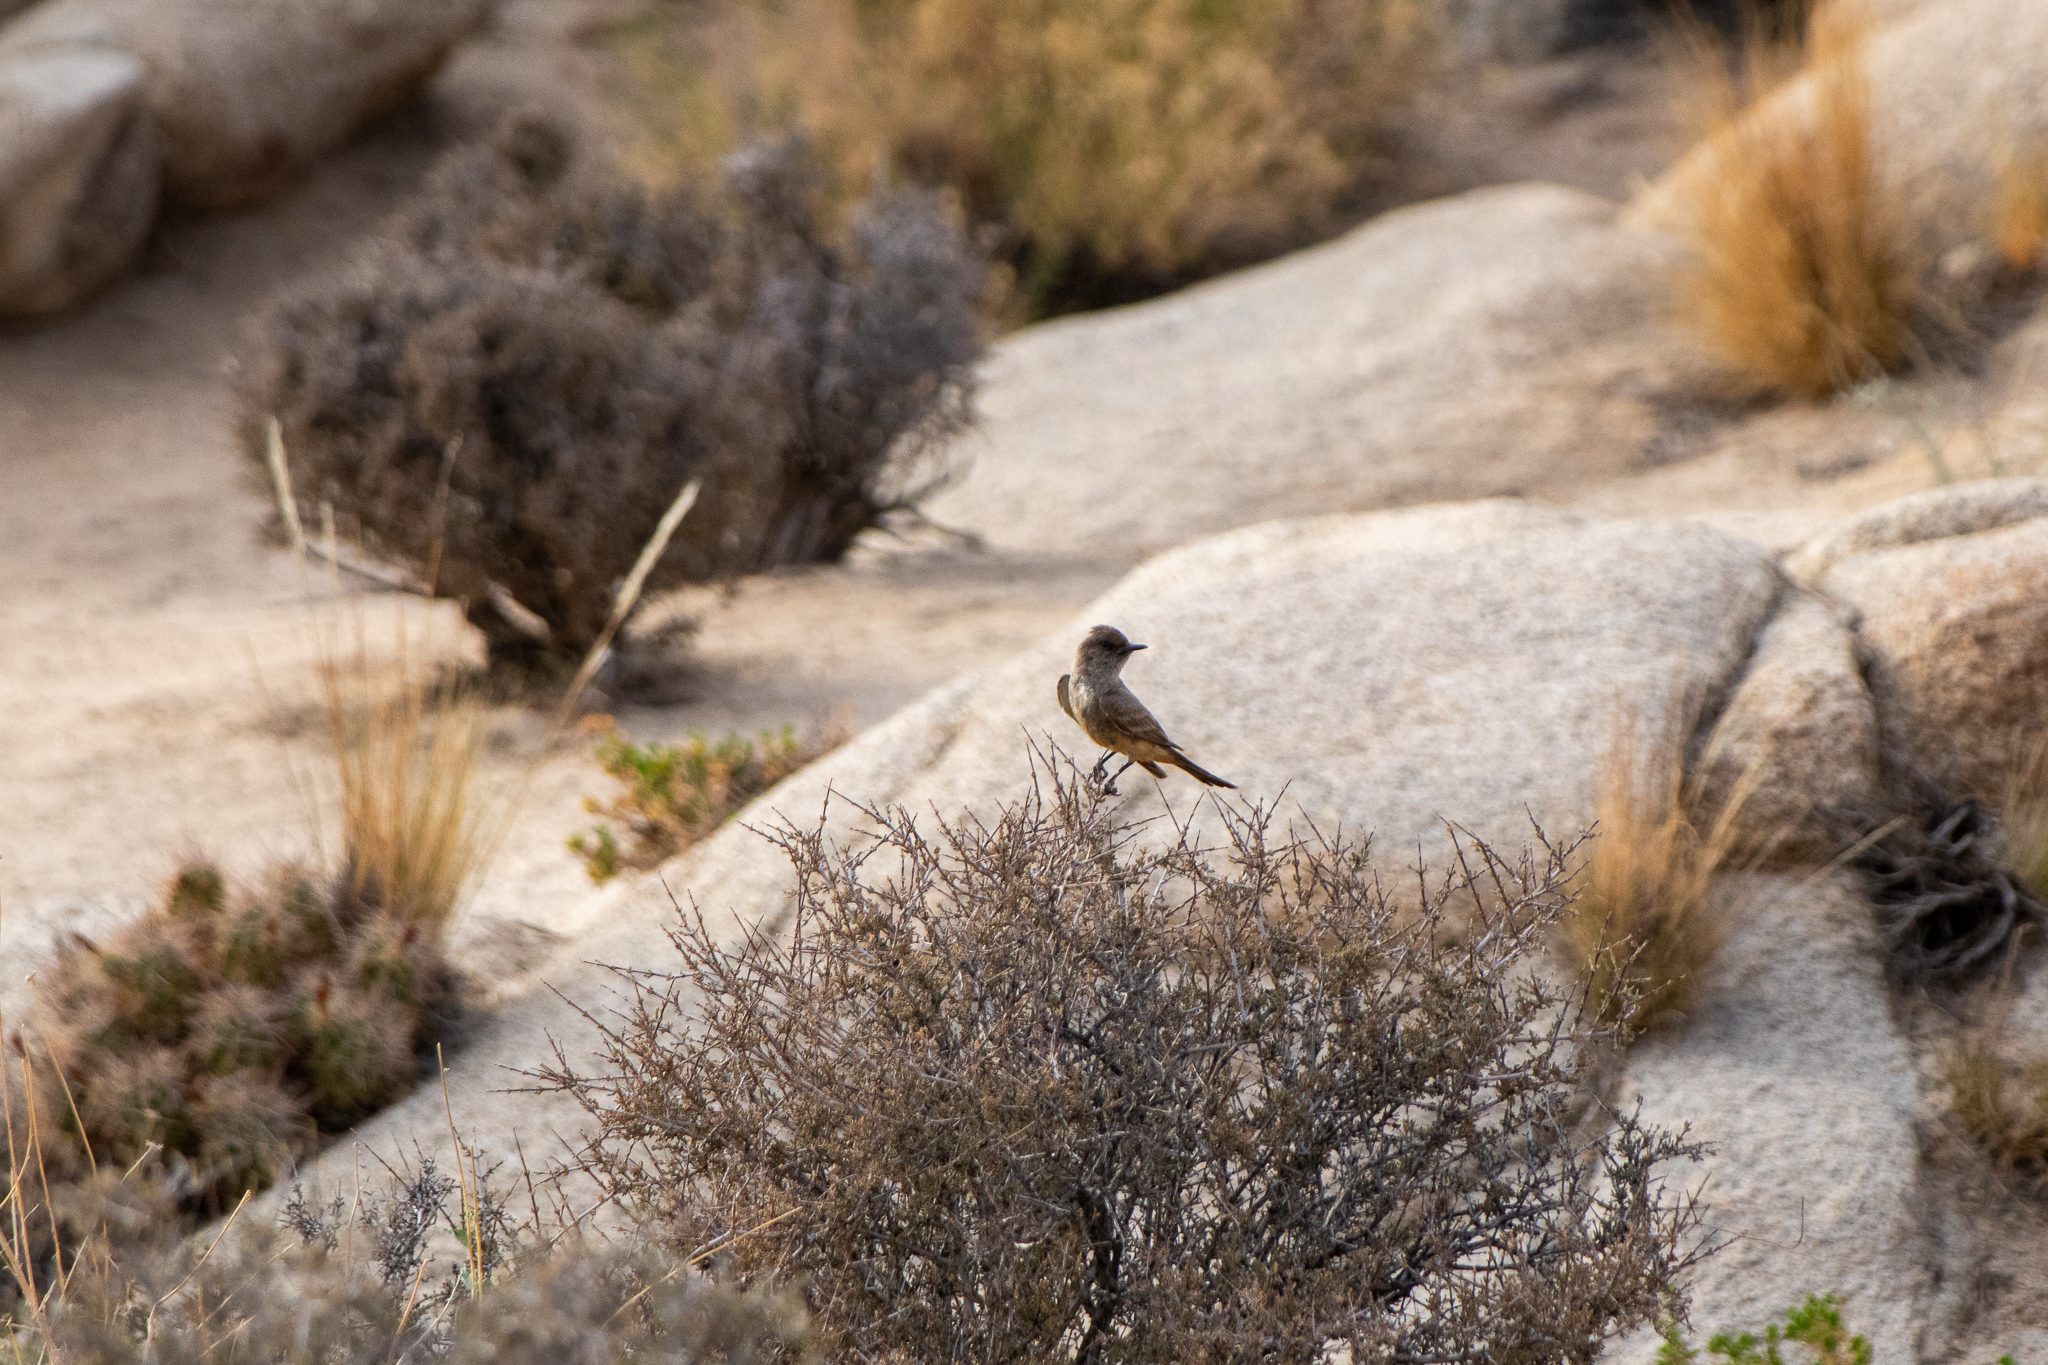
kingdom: Animalia
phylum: Chordata
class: Aves
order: Passeriformes
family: Tyrannidae
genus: Sayornis
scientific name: Sayornis saya
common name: Say's phoebe
